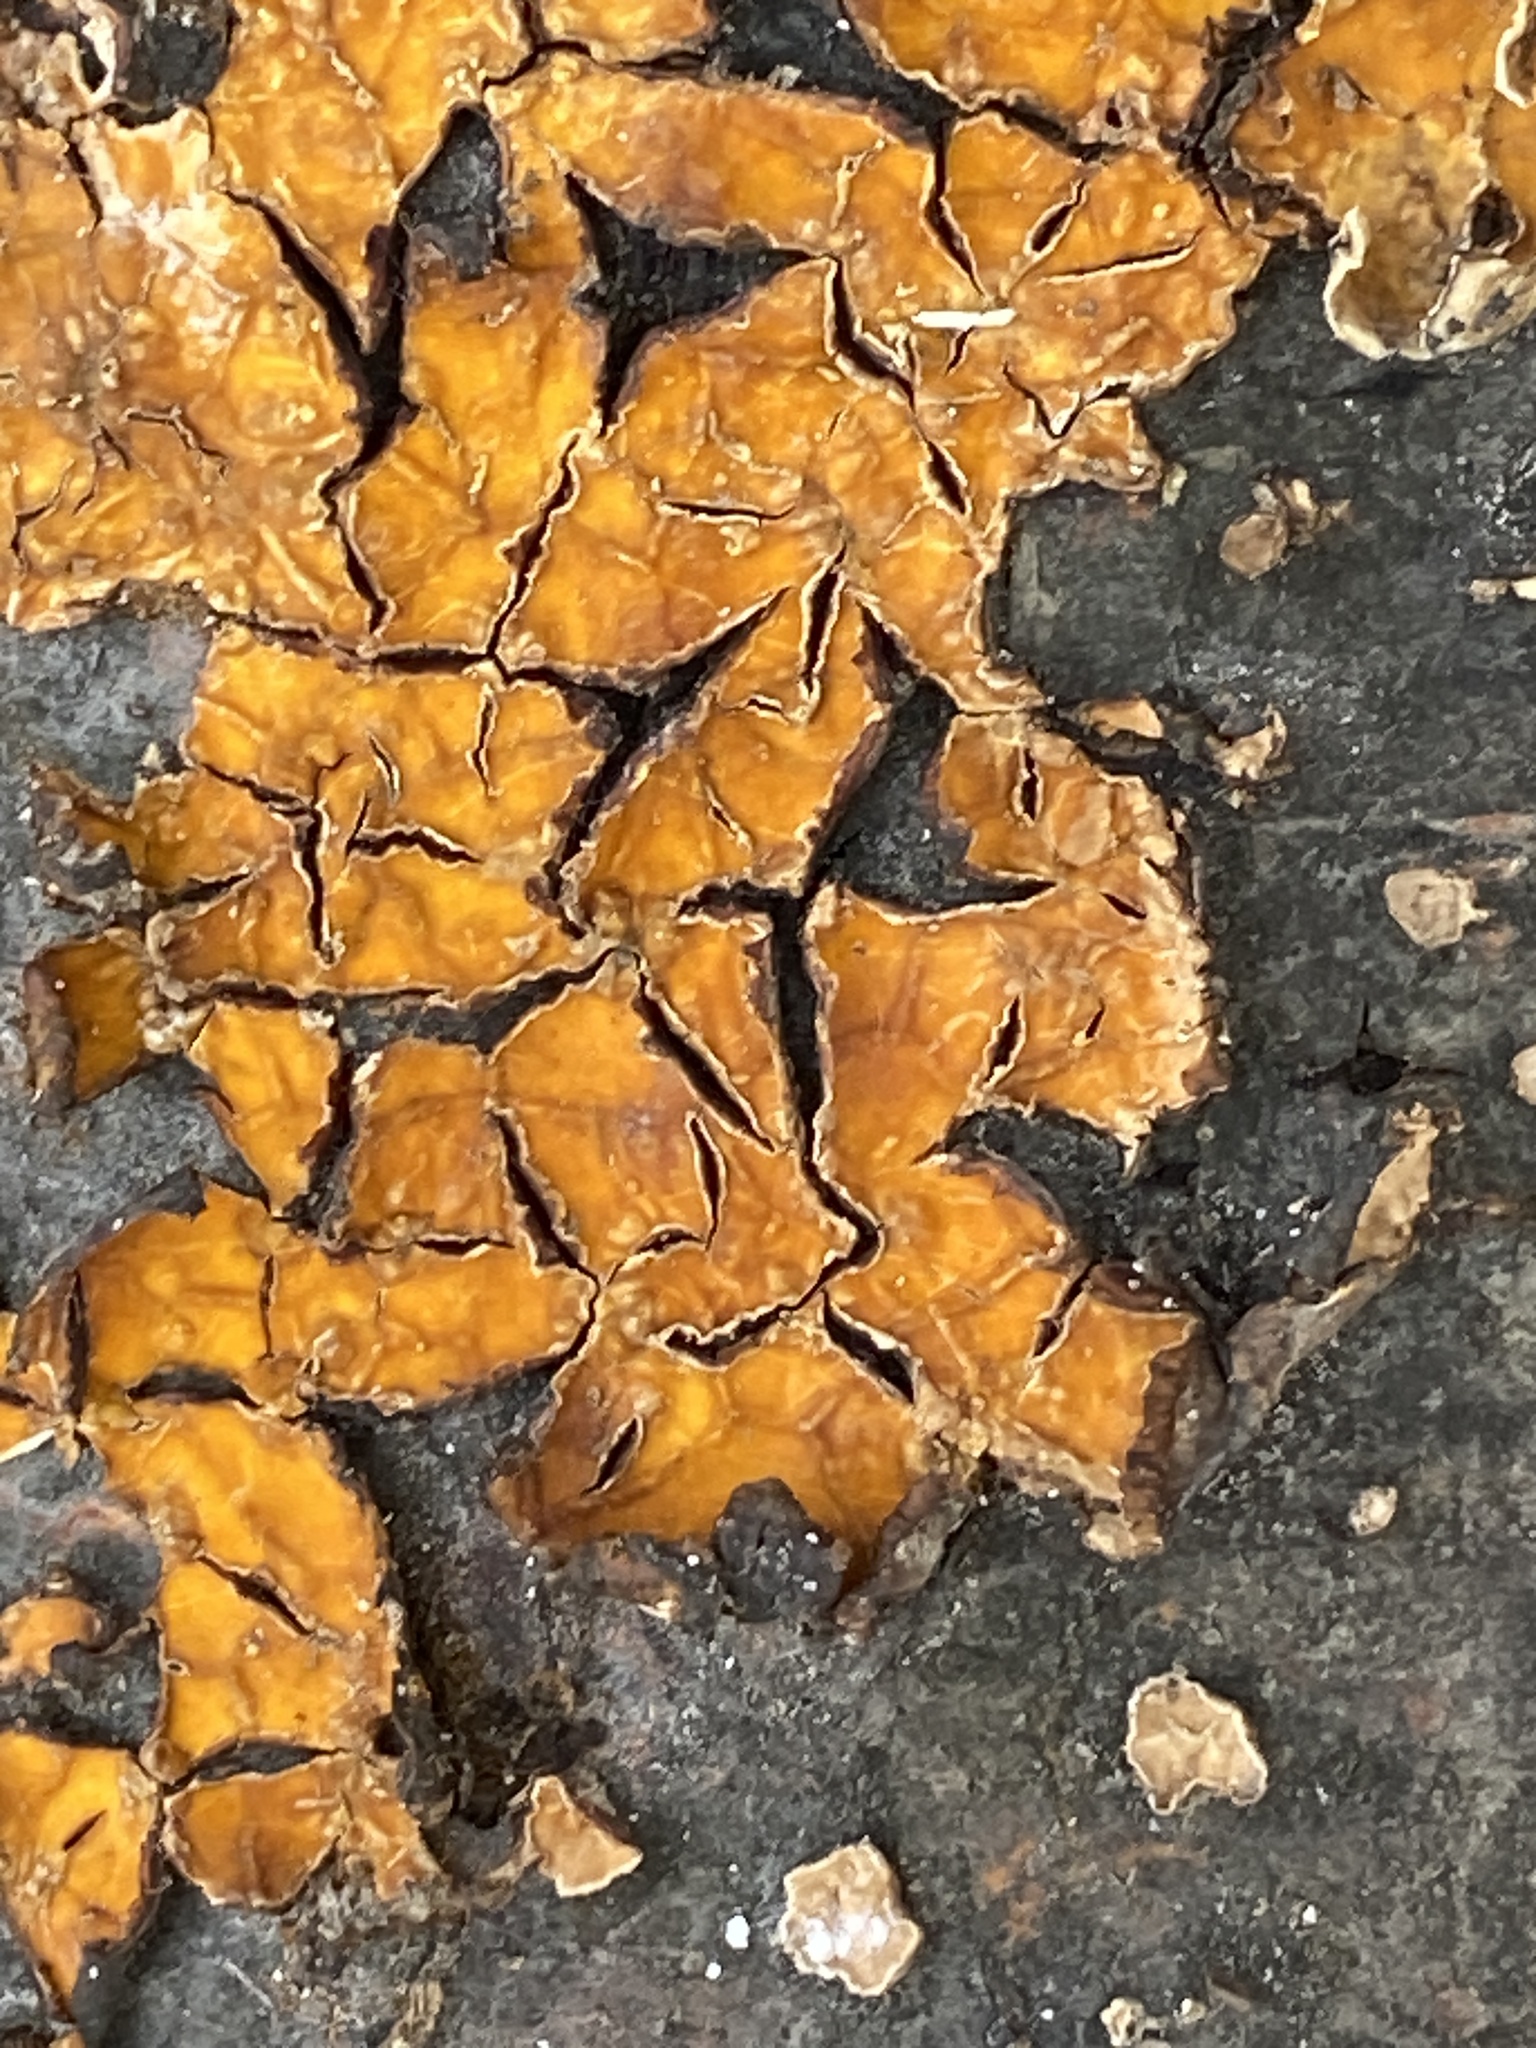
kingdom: Fungi
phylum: Basidiomycota
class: Agaricomycetes
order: Russulales
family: Stereaceae
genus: Stereum
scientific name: Stereum complicatum
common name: Crowded parchment
